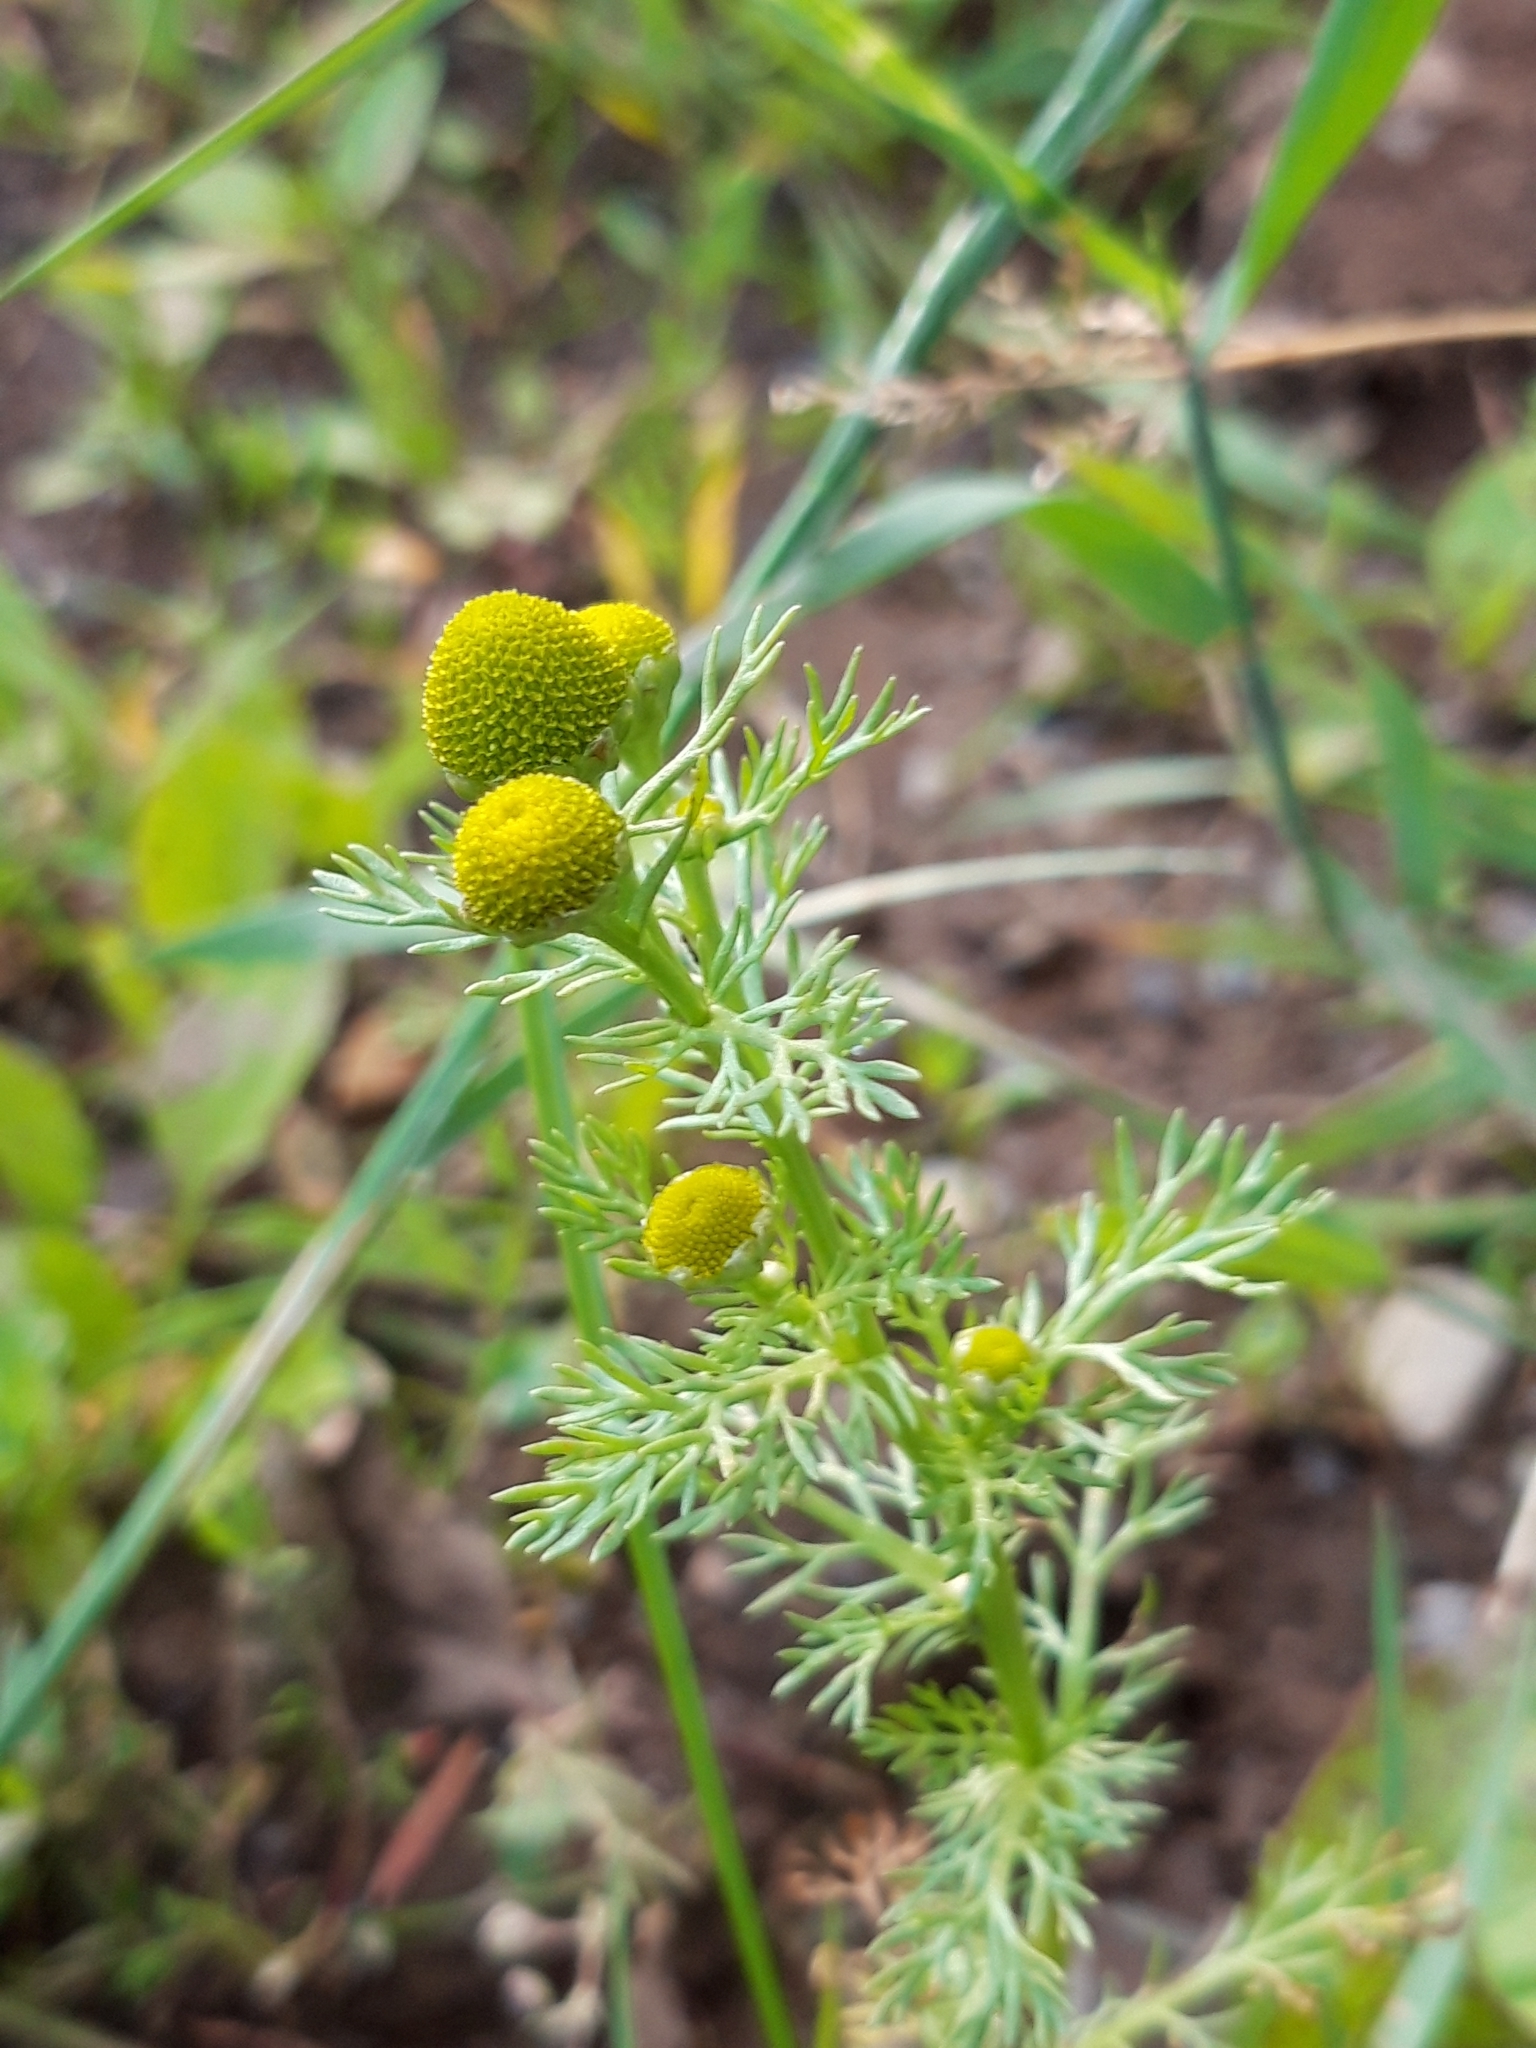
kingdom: Plantae
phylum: Tracheophyta
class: Magnoliopsida
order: Asterales
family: Asteraceae
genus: Matricaria
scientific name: Matricaria discoidea
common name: Disc mayweed
